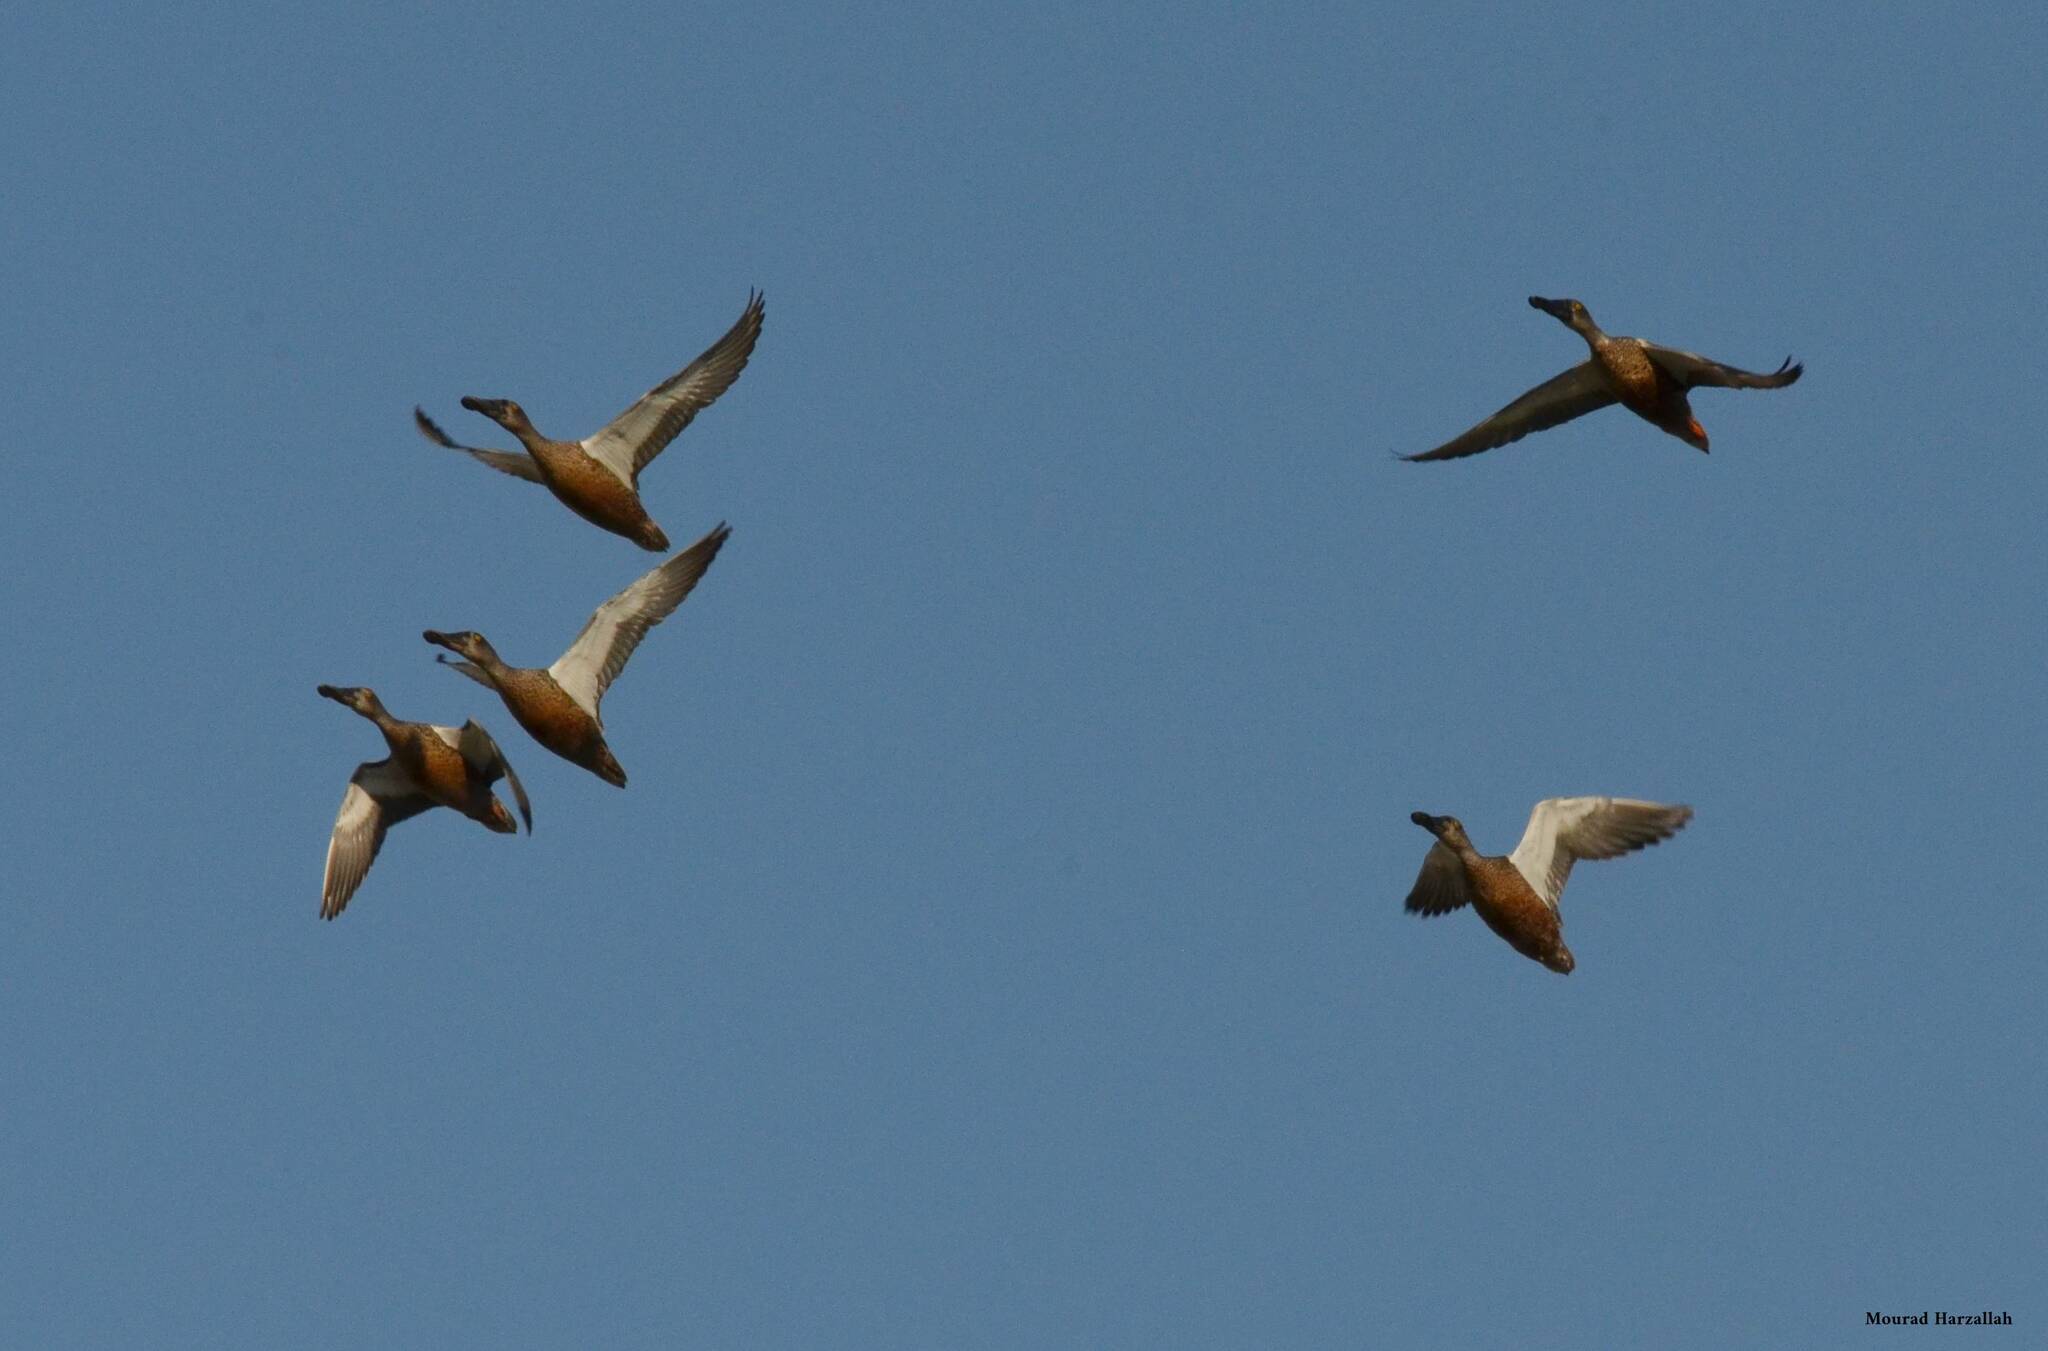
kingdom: Animalia
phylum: Chordata
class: Aves
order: Anseriformes
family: Anatidae
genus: Spatula
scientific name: Spatula clypeata
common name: Northern shoveler
